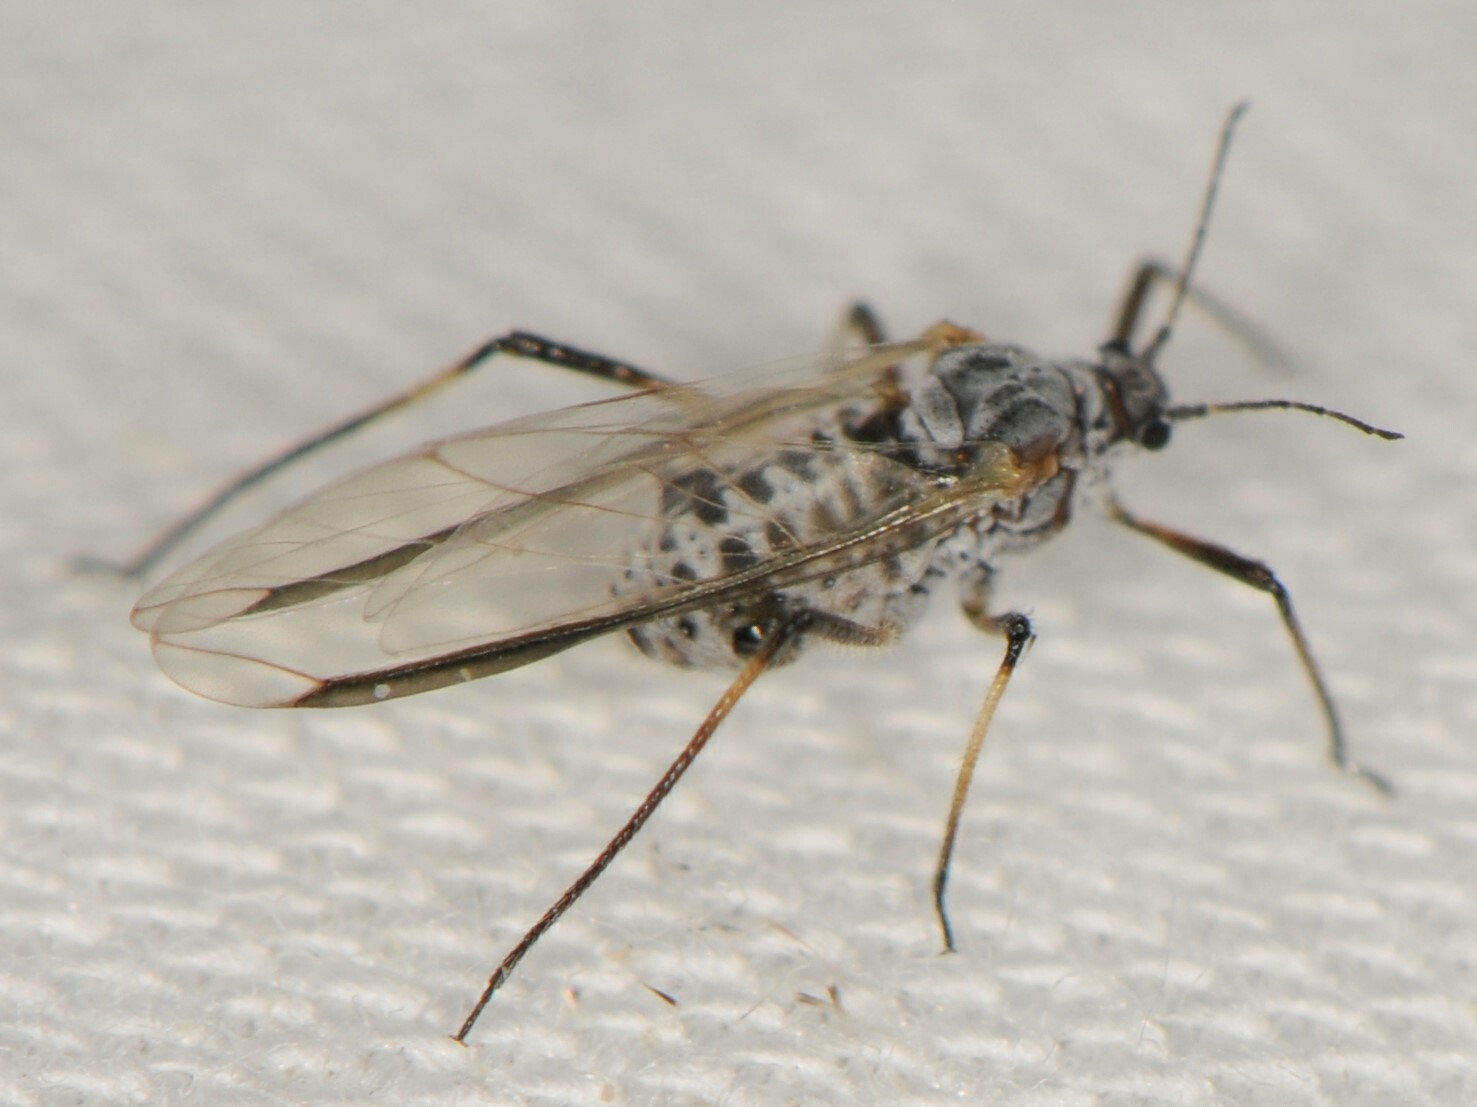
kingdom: Animalia
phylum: Arthropoda
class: Insecta
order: Hemiptera
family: Aphididae
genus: Cinara
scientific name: Cinara
